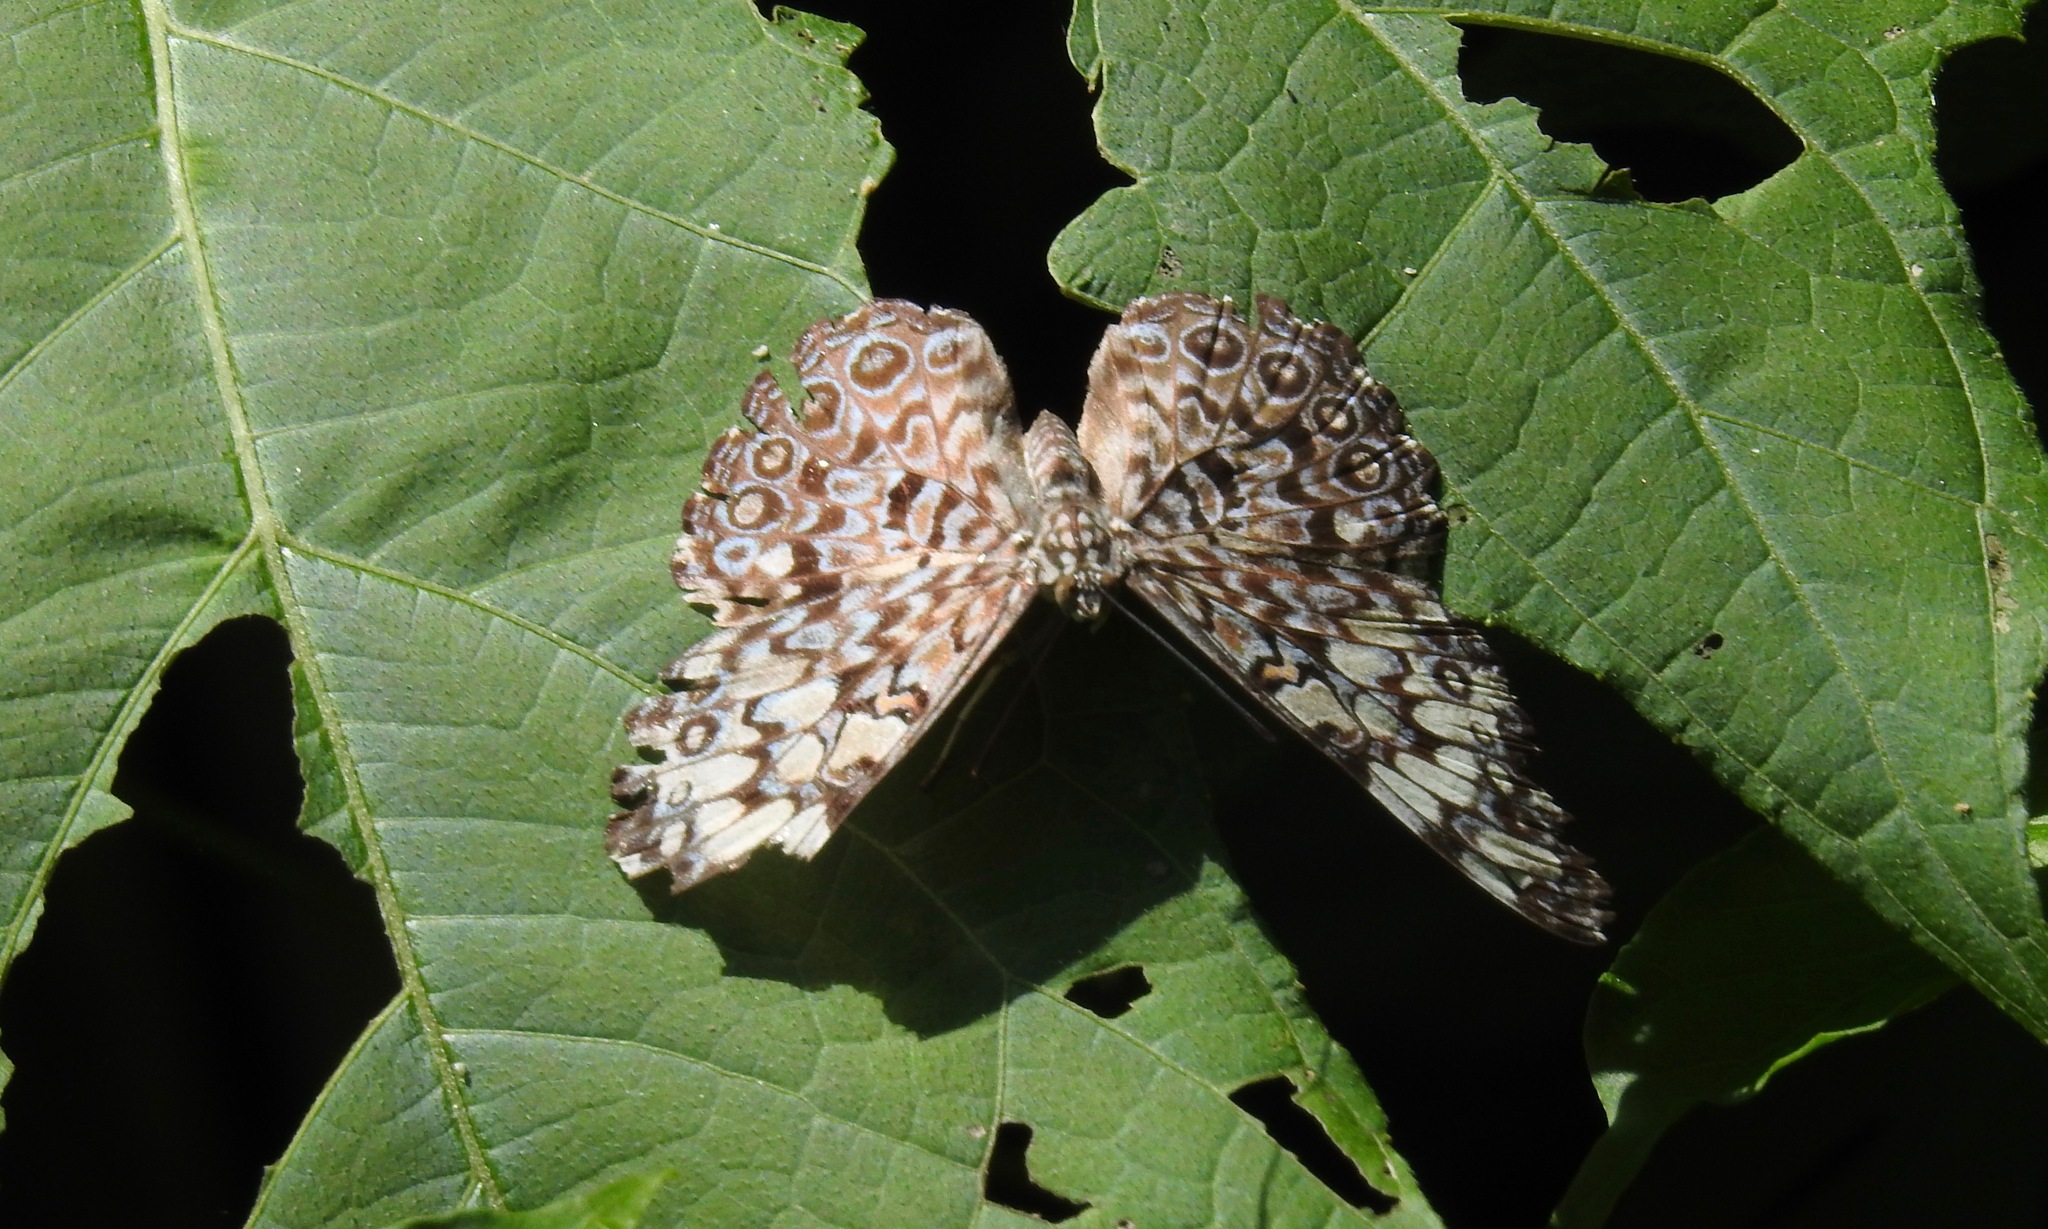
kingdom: Animalia
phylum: Arthropoda
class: Insecta
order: Lepidoptera
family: Nymphalidae
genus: Hamadryas
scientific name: Hamadryas feronia
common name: Variable cracker
